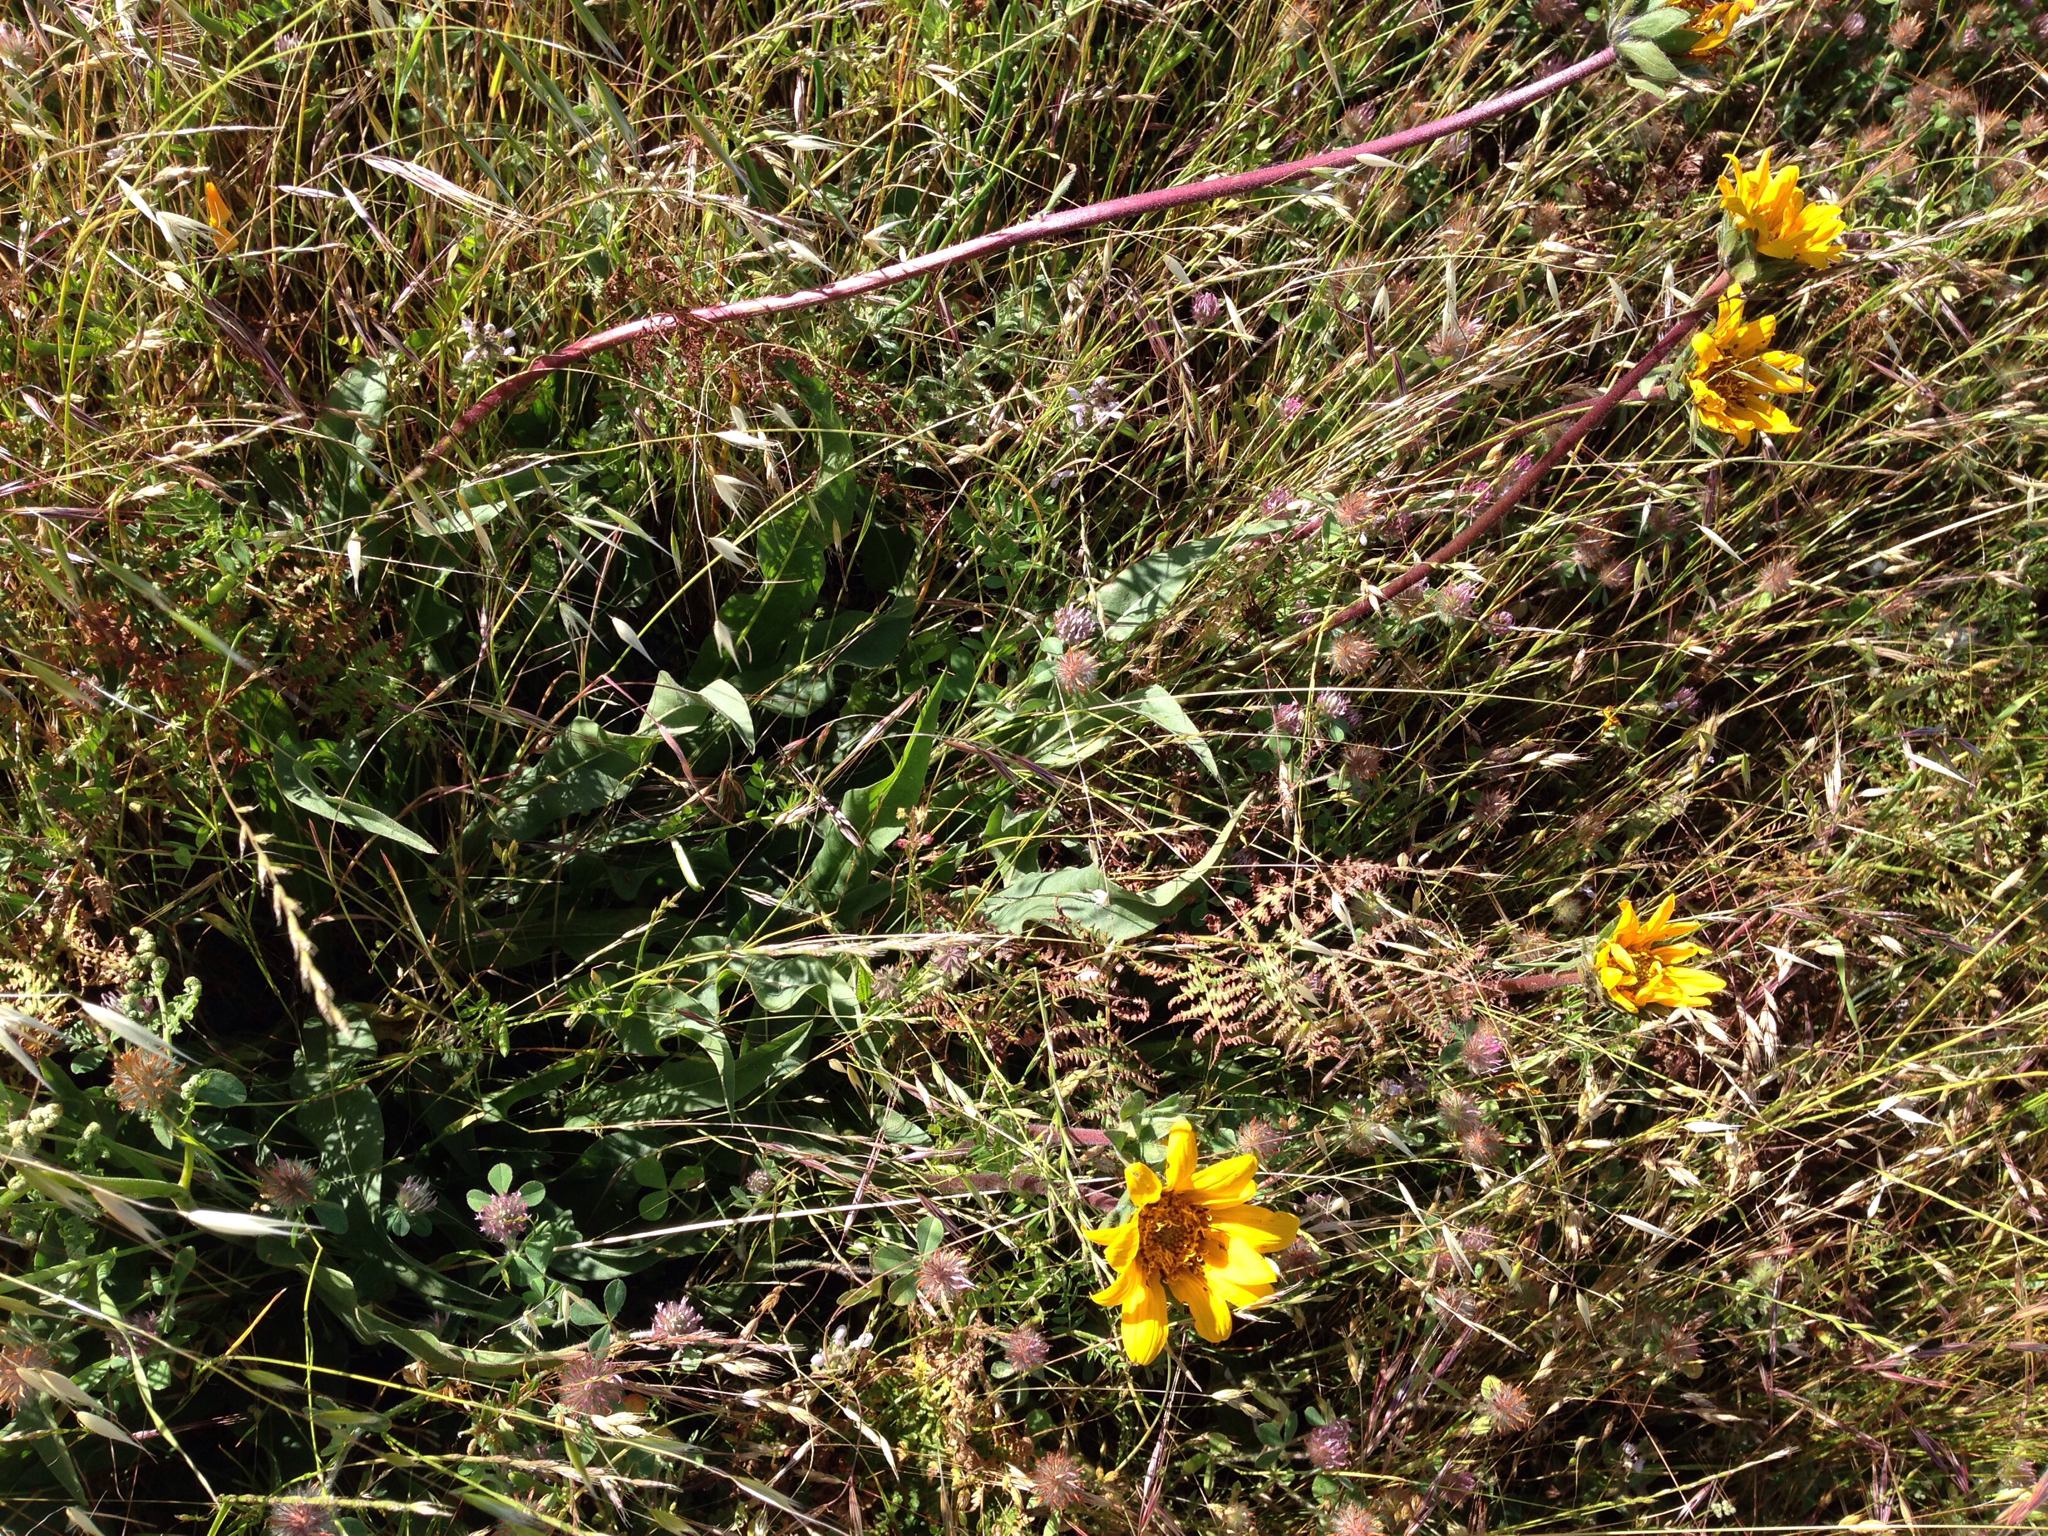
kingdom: Plantae
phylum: Tracheophyta
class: Magnoliopsida
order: Asterales
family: Asteraceae
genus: Wyethia
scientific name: Wyethia angustifolia
